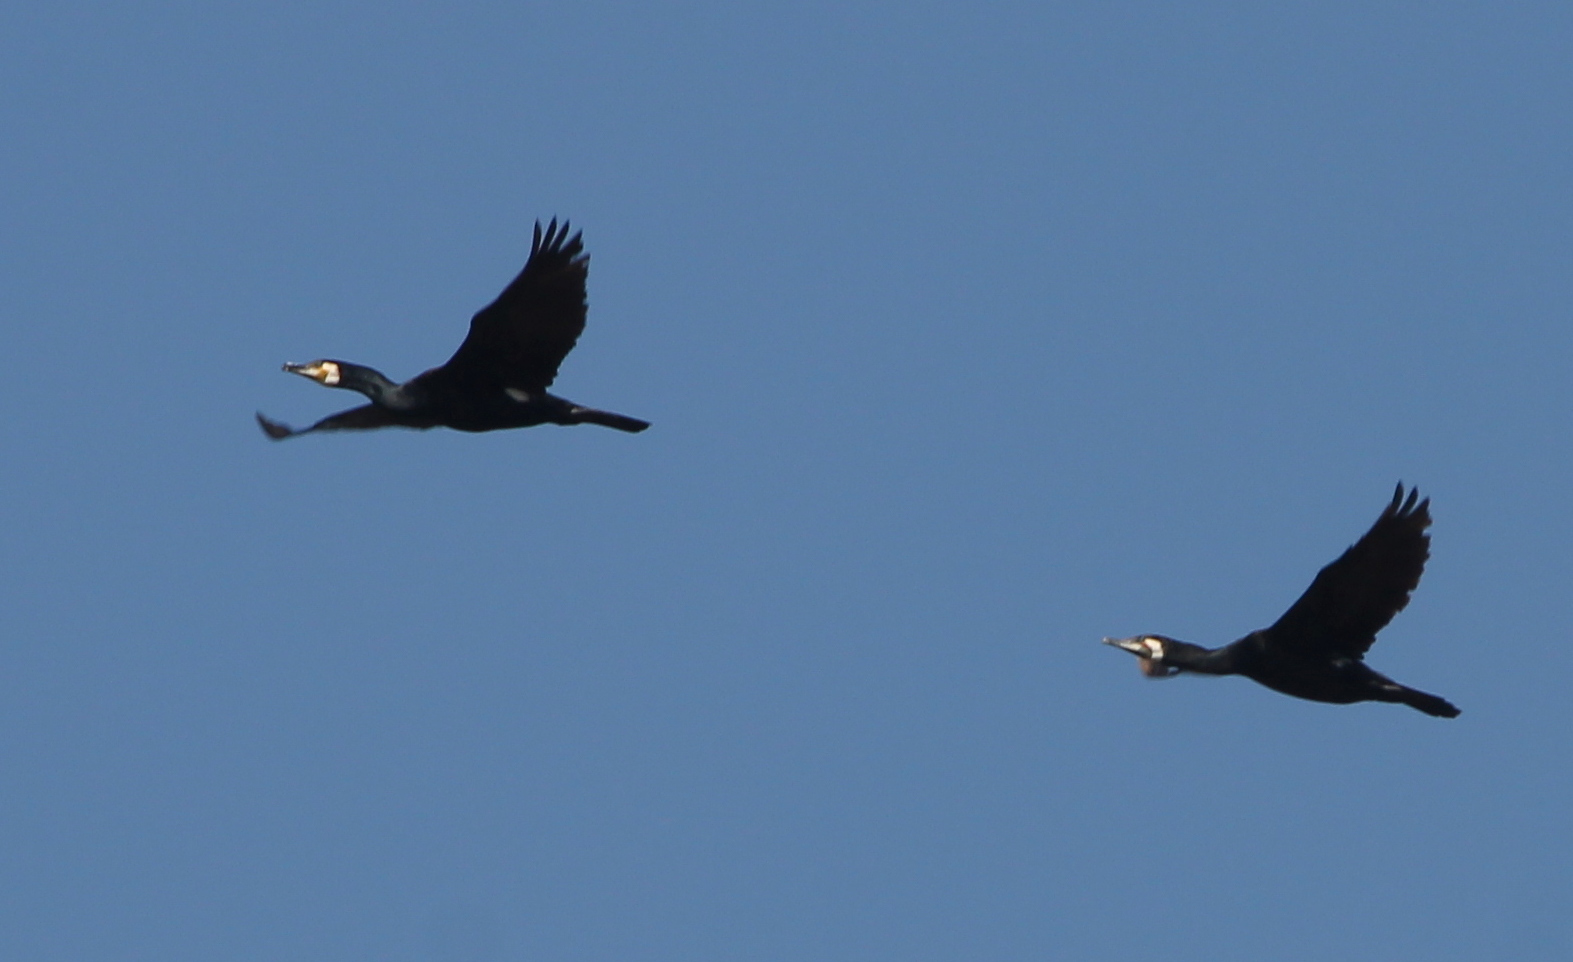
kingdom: Animalia
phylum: Chordata
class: Aves
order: Suliformes
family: Phalacrocoracidae
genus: Phalacrocorax
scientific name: Phalacrocorax carbo
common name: Great cormorant
